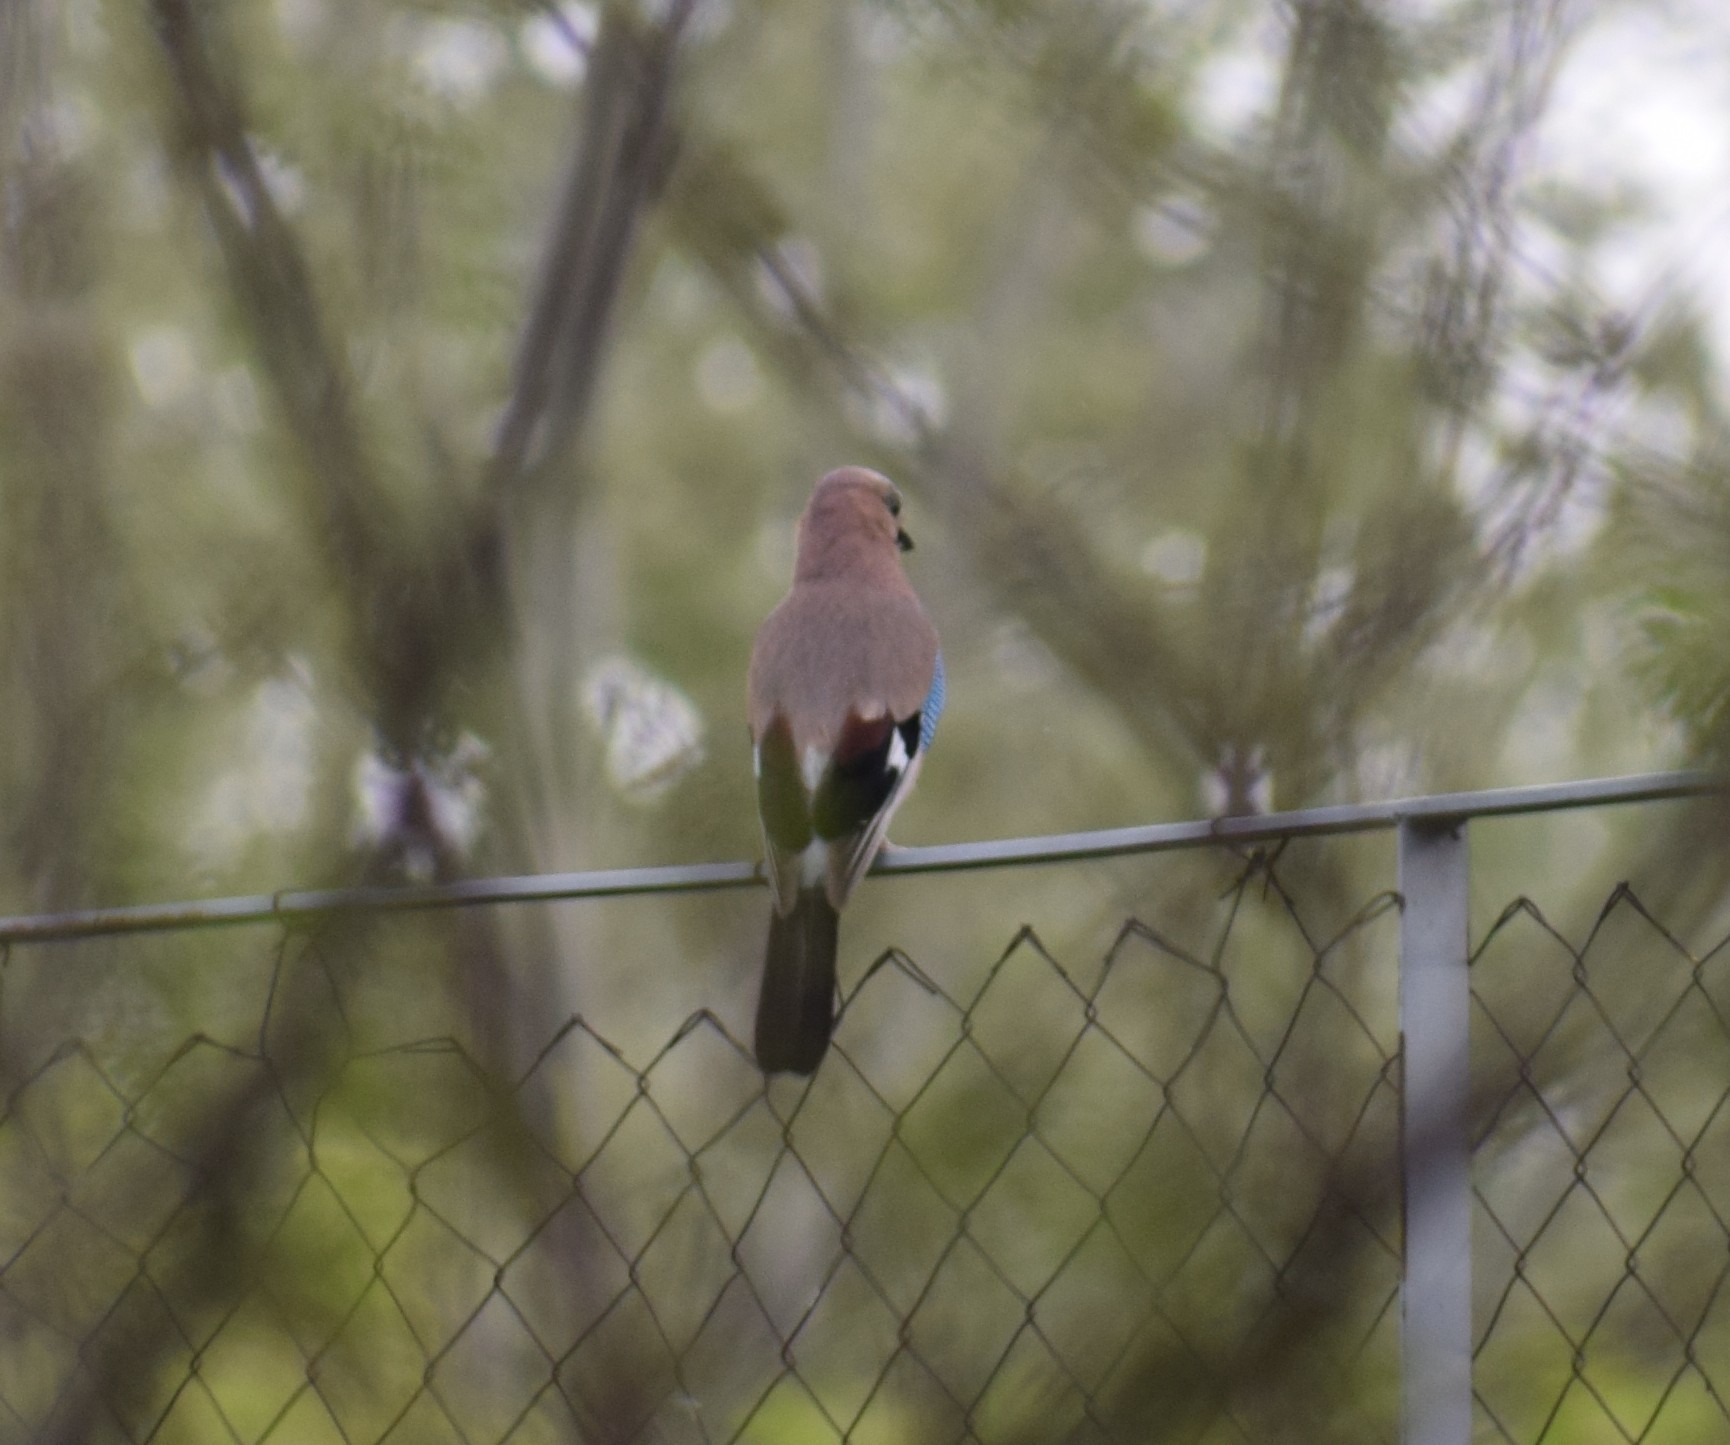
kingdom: Animalia
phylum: Chordata
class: Aves
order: Passeriformes
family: Corvidae
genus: Garrulus
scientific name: Garrulus glandarius
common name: Eurasian jay
